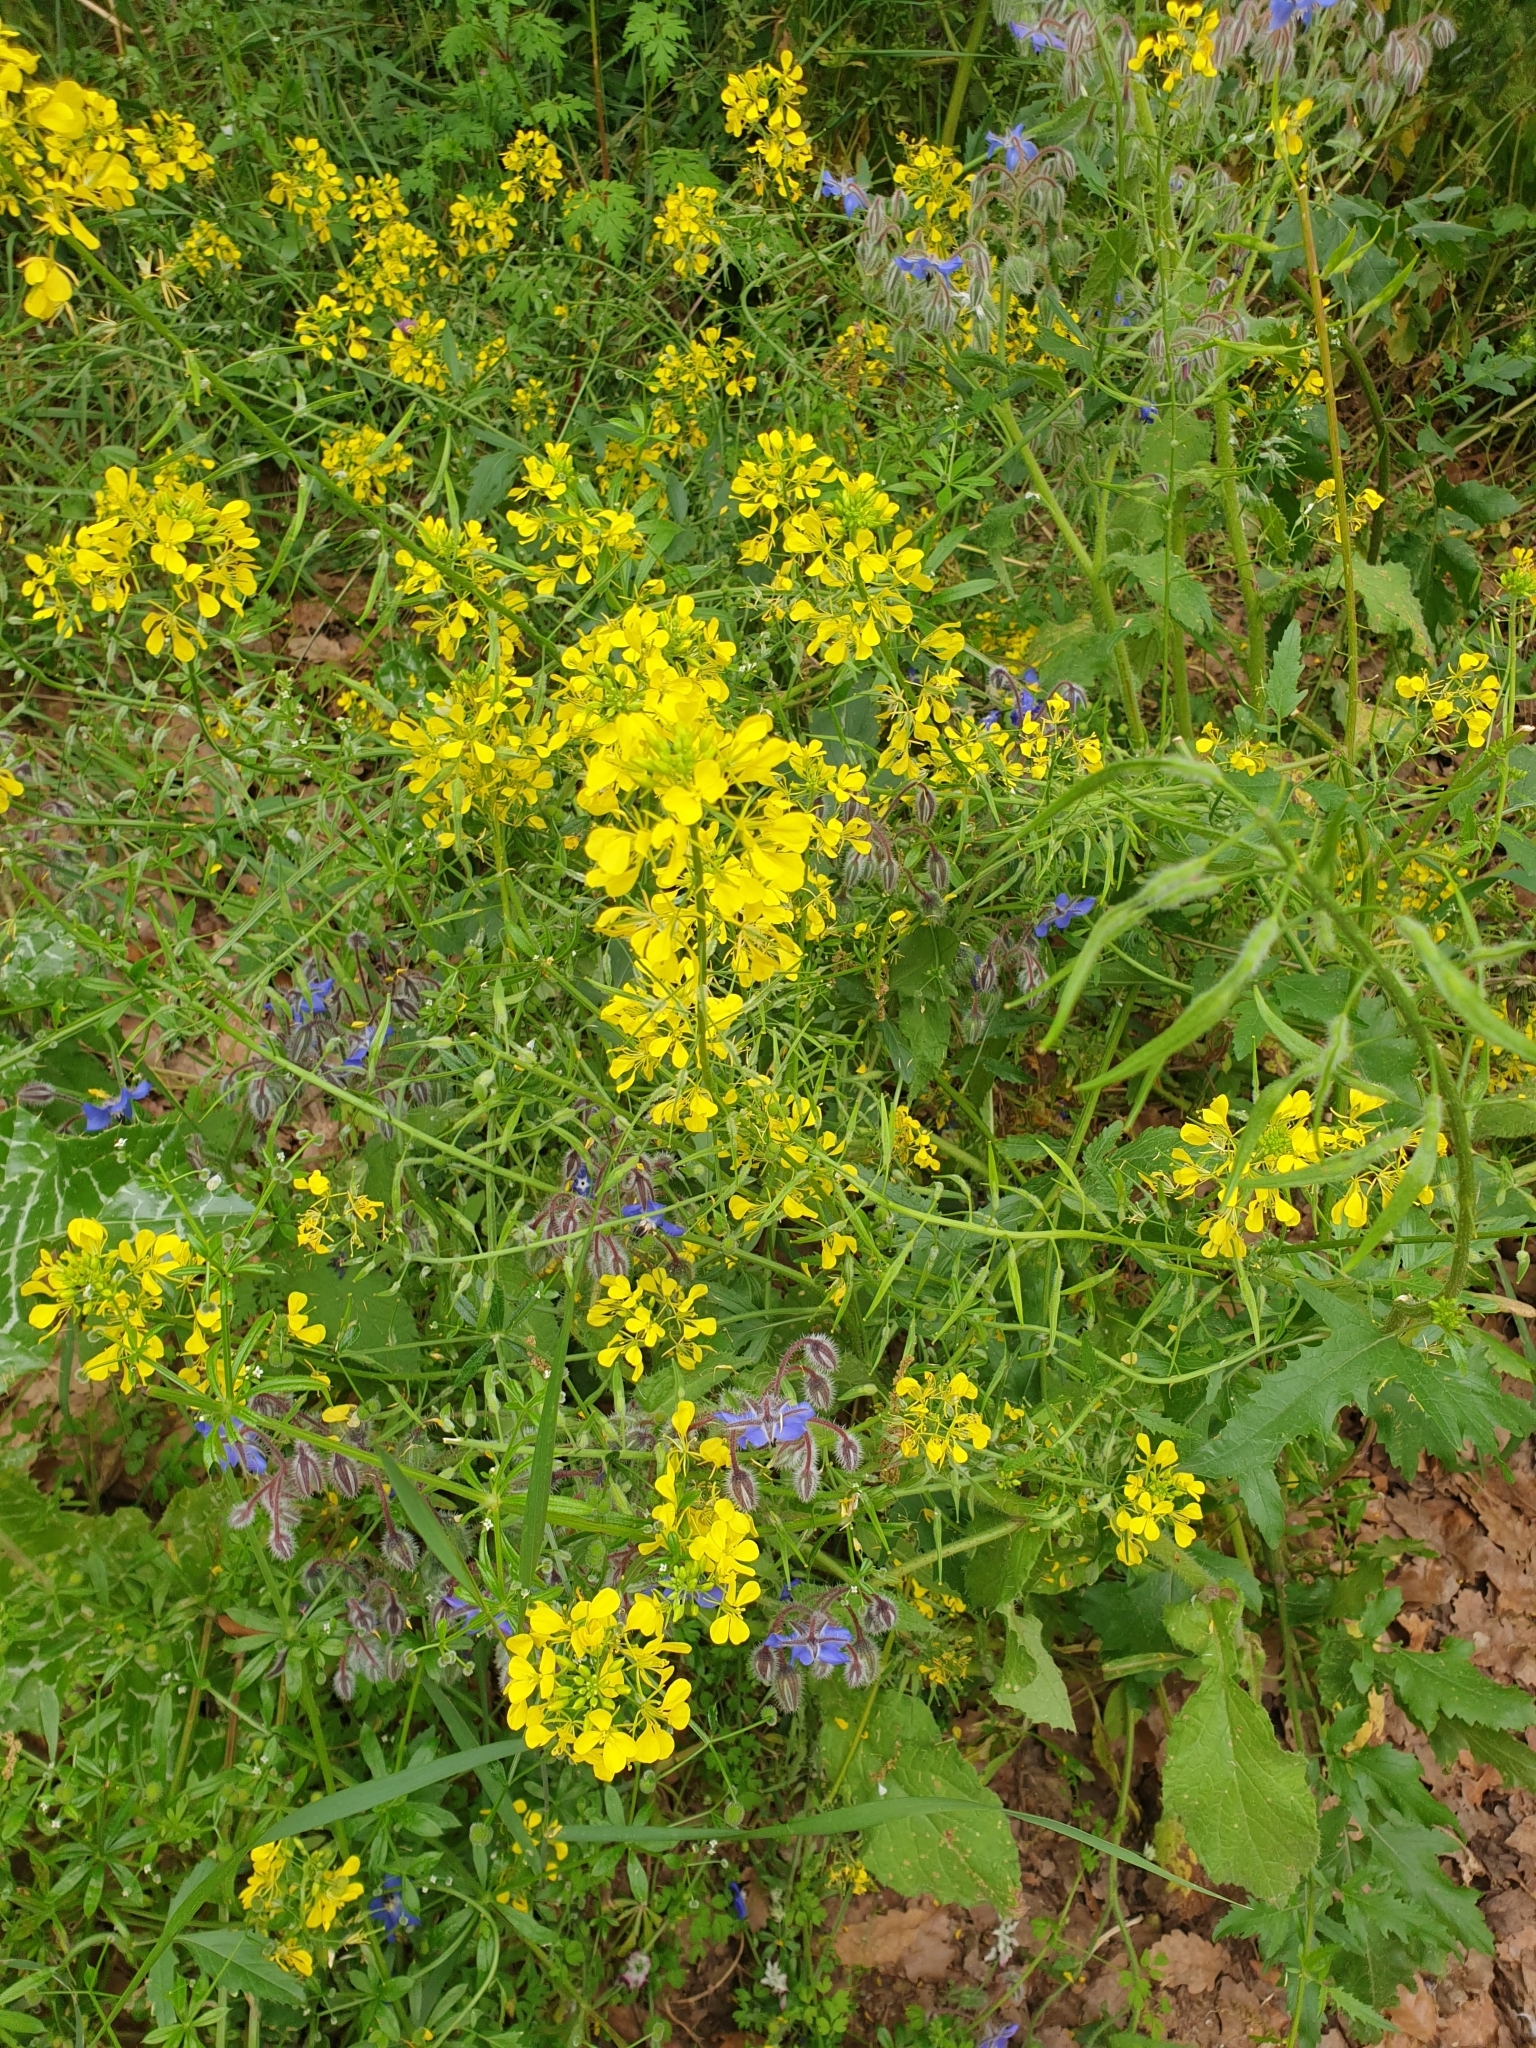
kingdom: Plantae
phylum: Tracheophyta
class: Magnoliopsida
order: Brassicales
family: Brassicaceae
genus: Sinapis
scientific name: Sinapis alba
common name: White mustard
